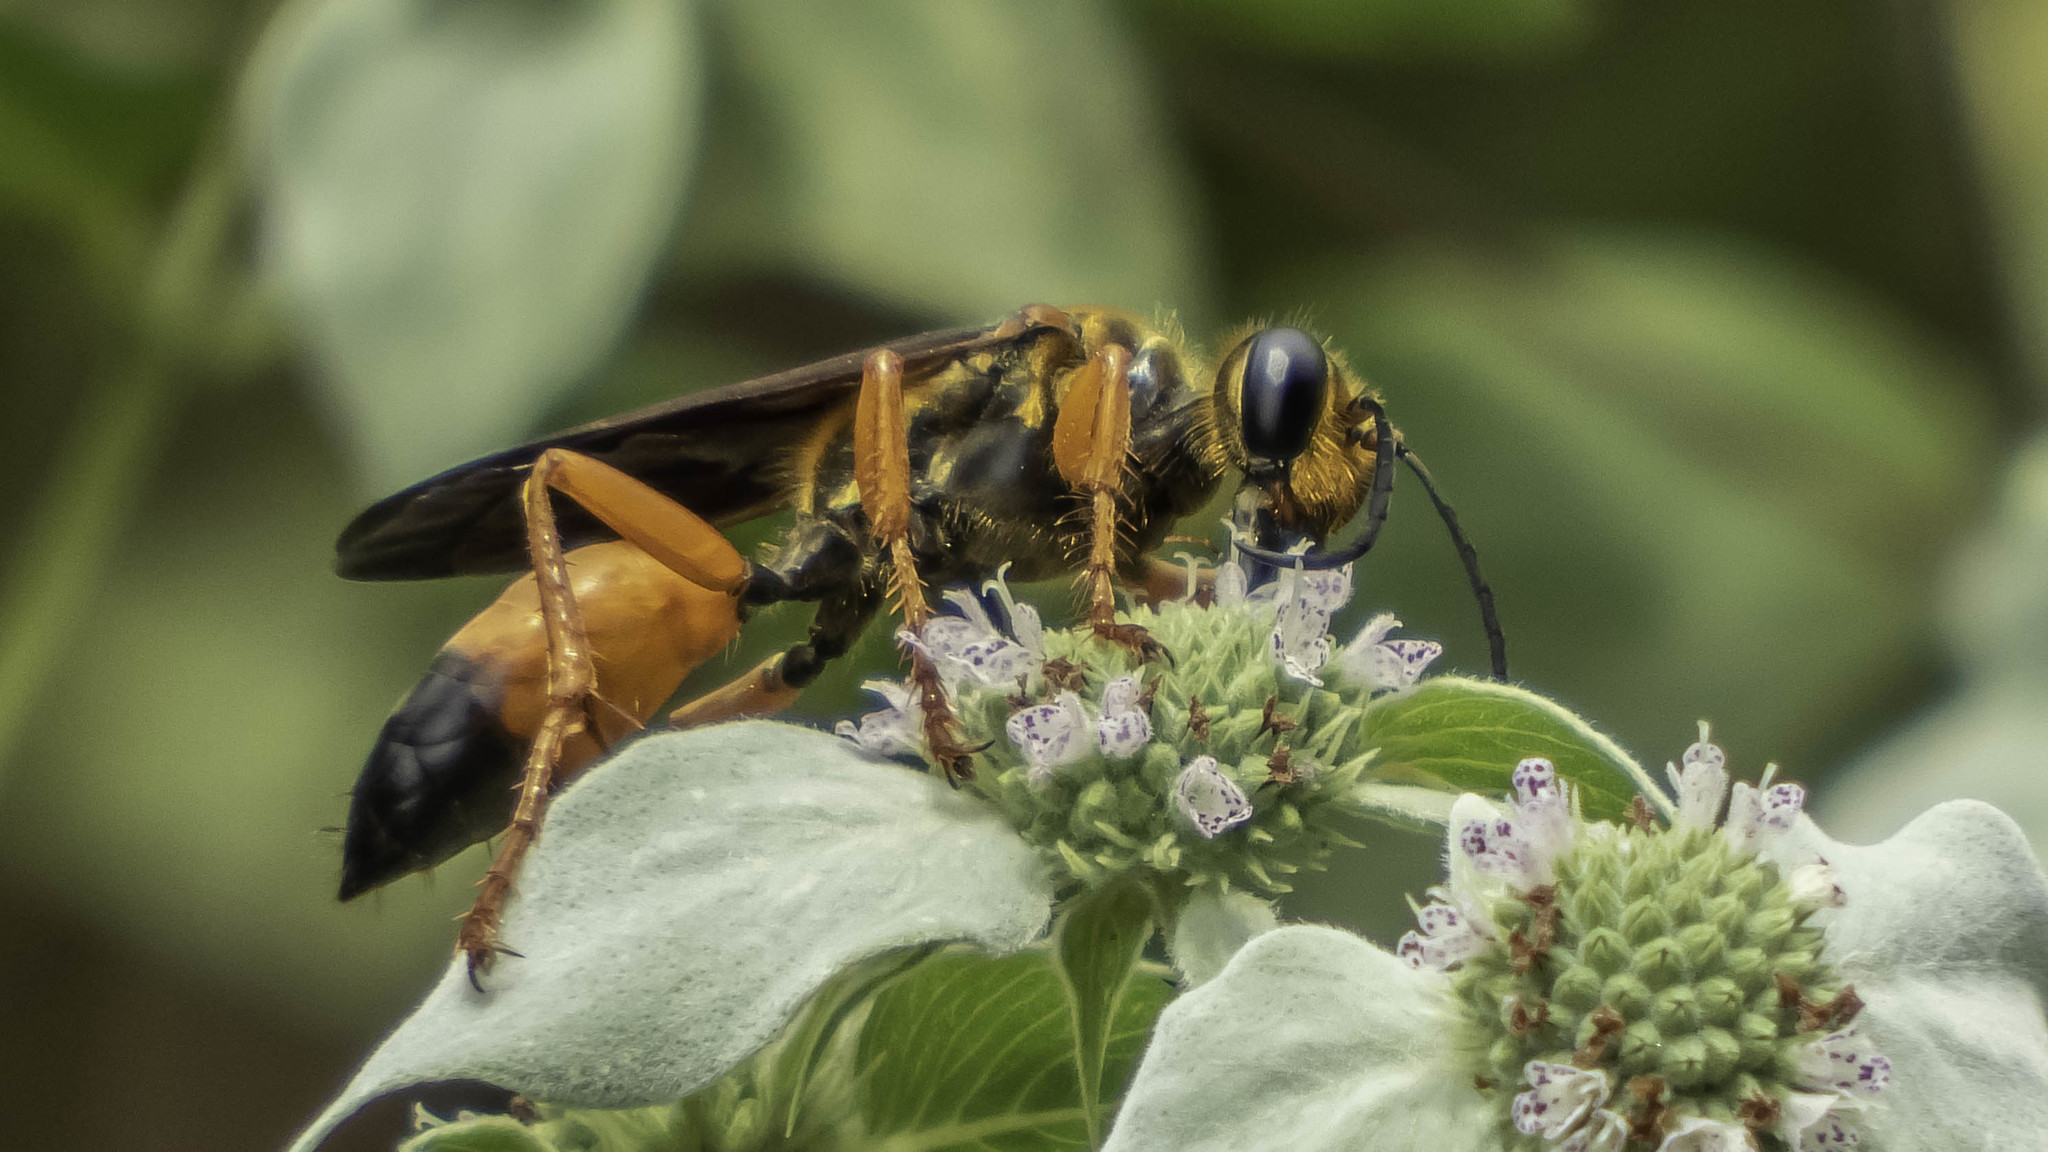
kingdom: Animalia
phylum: Arthropoda
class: Insecta
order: Hymenoptera
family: Sphecidae
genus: Sphex
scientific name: Sphex ichneumoneus
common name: Great golden digger wasp
